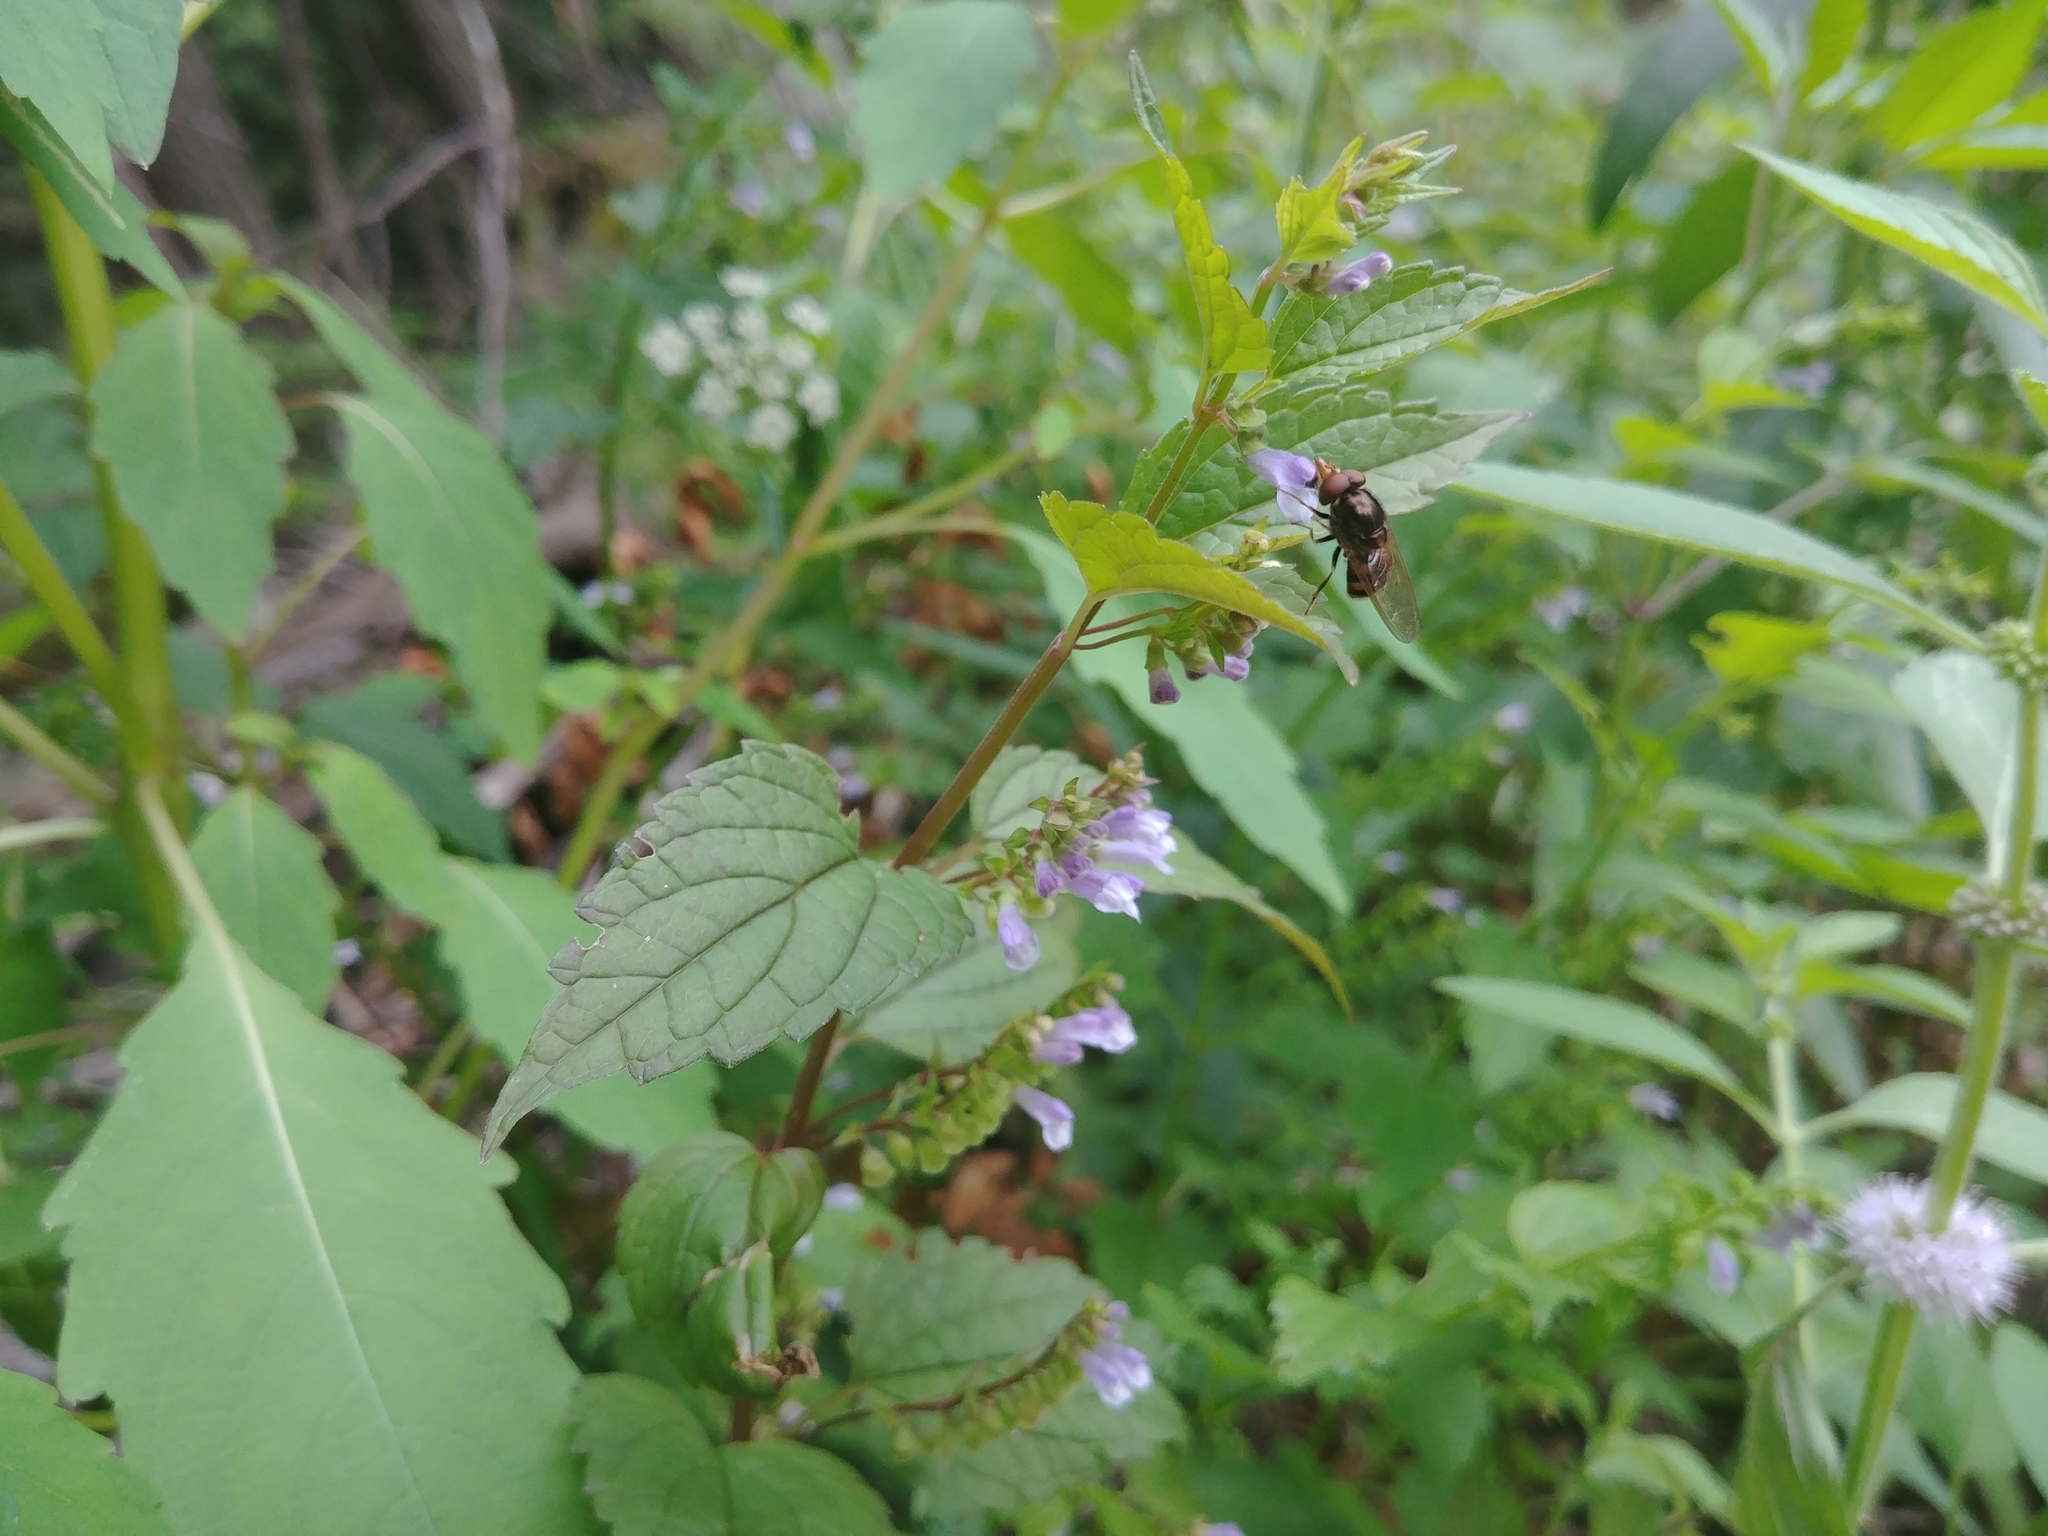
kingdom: Plantae
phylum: Tracheophyta
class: Magnoliopsida
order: Lamiales
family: Lamiaceae
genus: Scutellaria
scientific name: Scutellaria lateriflora
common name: Blue skullcap
